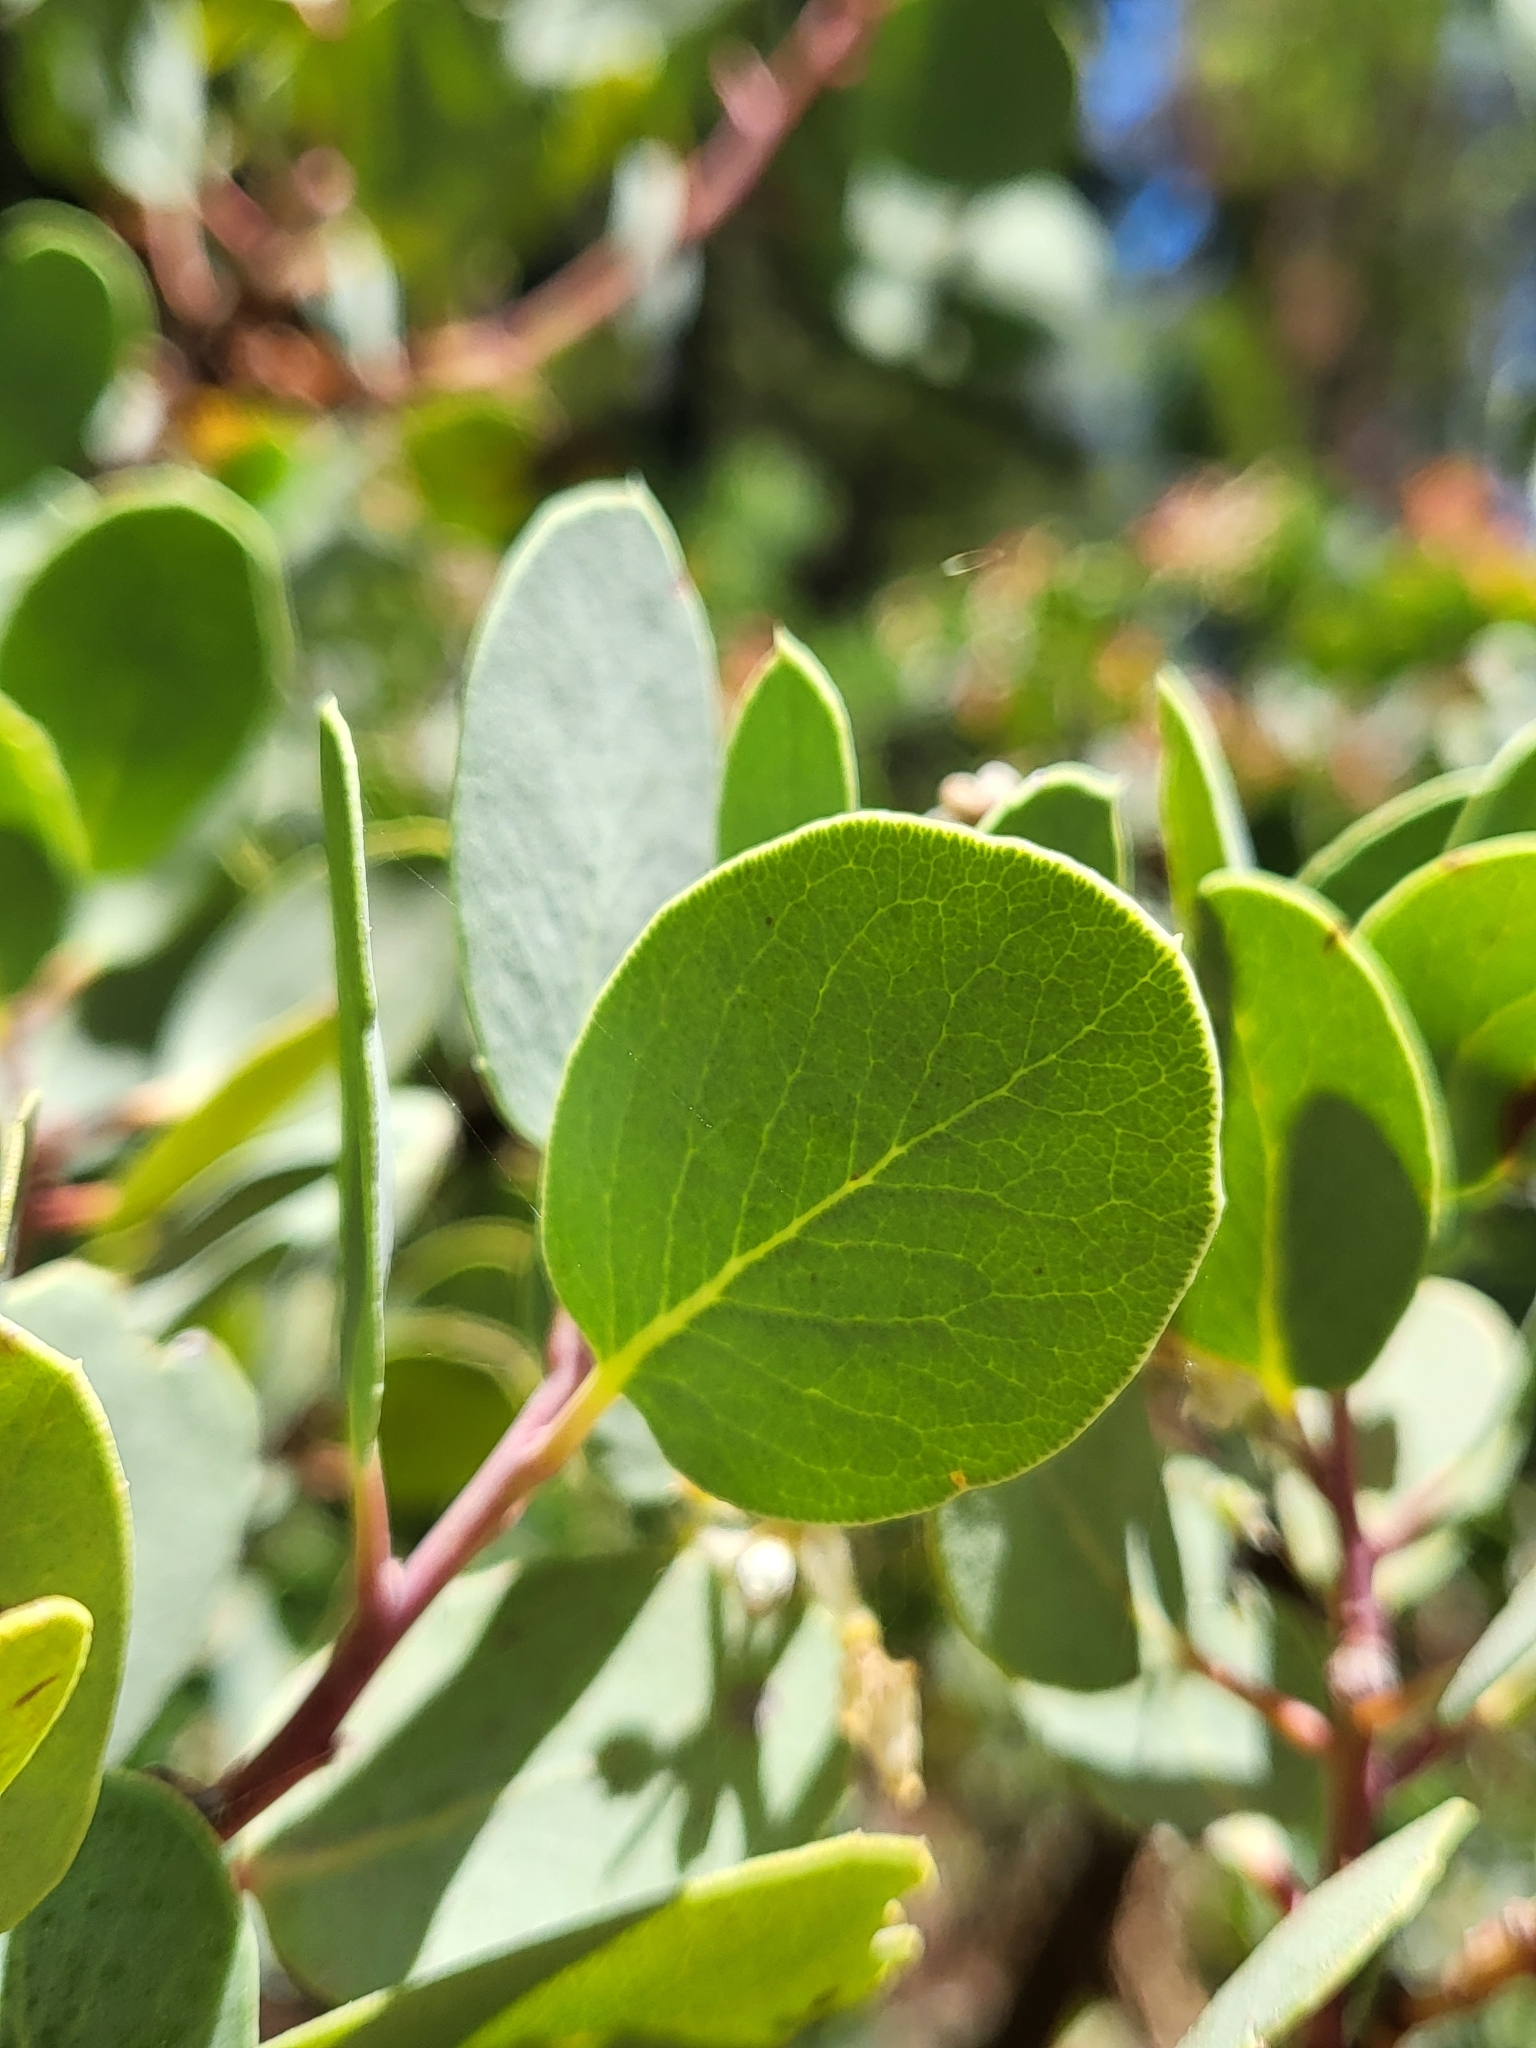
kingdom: Plantae
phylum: Tracheophyta
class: Magnoliopsida
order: Ericales
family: Ericaceae
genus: Arctostaphylos
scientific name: Arctostaphylos viscida
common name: White-leaf manzanita
